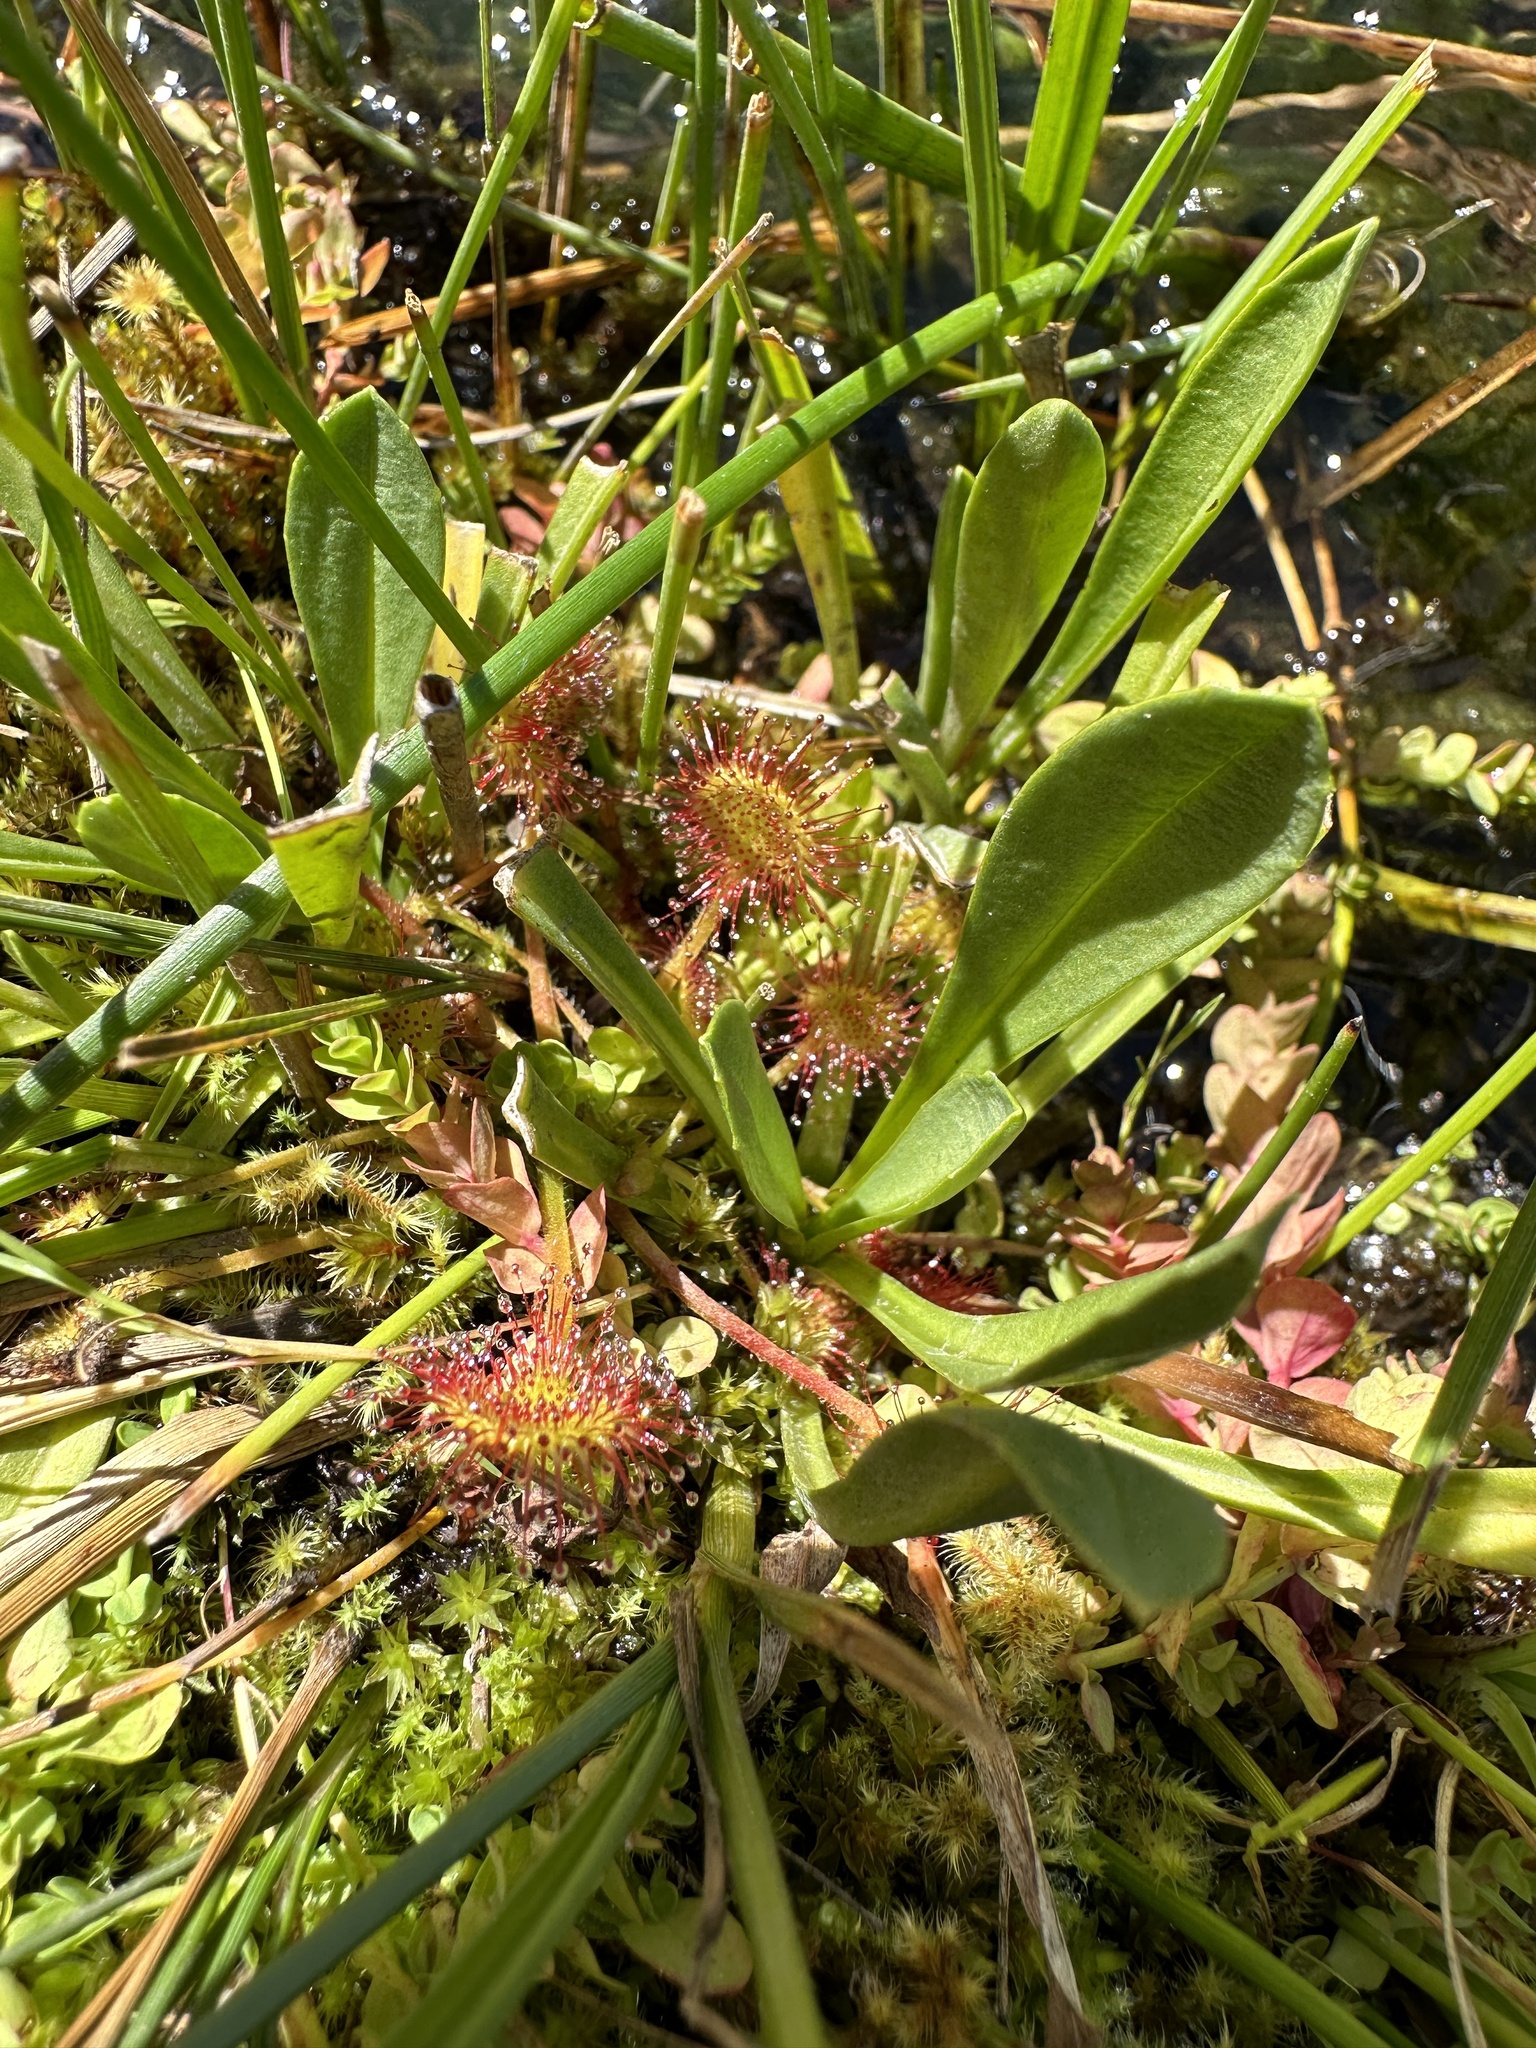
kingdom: Plantae
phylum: Tracheophyta
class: Magnoliopsida
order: Caryophyllales
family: Droseraceae
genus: Drosera
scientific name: Drosera rotundifolia
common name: Round-leaved sundew
